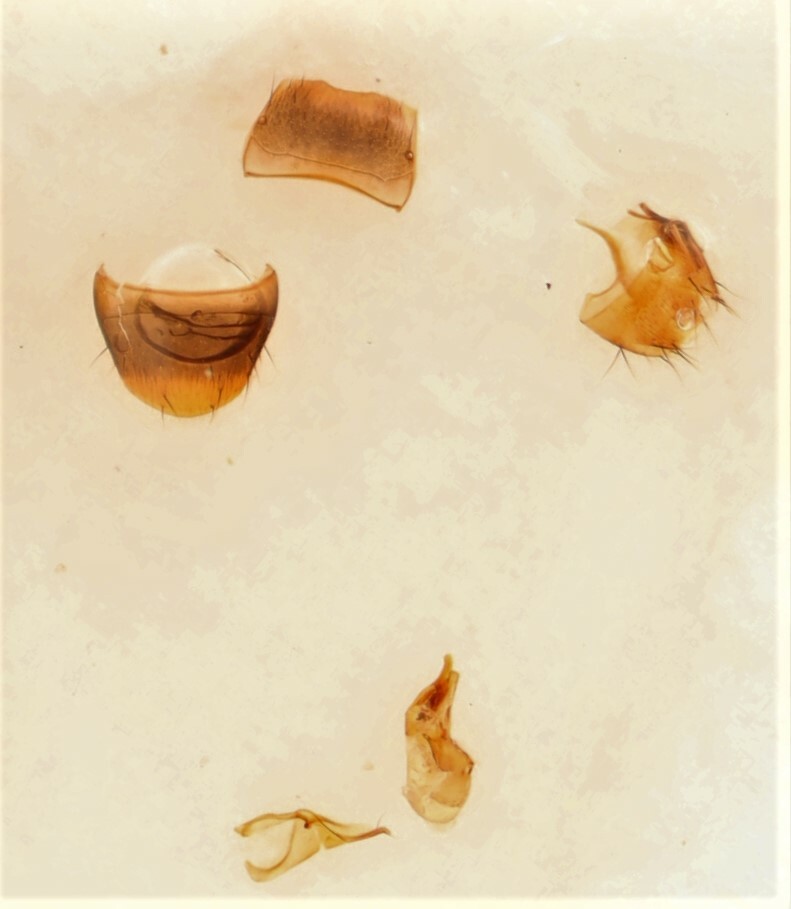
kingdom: Animalia
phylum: Arthropoda
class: Insecta
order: Coleoptera
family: Staphylinidae
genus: Homalota
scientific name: Homalota plana
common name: Rove beetle
